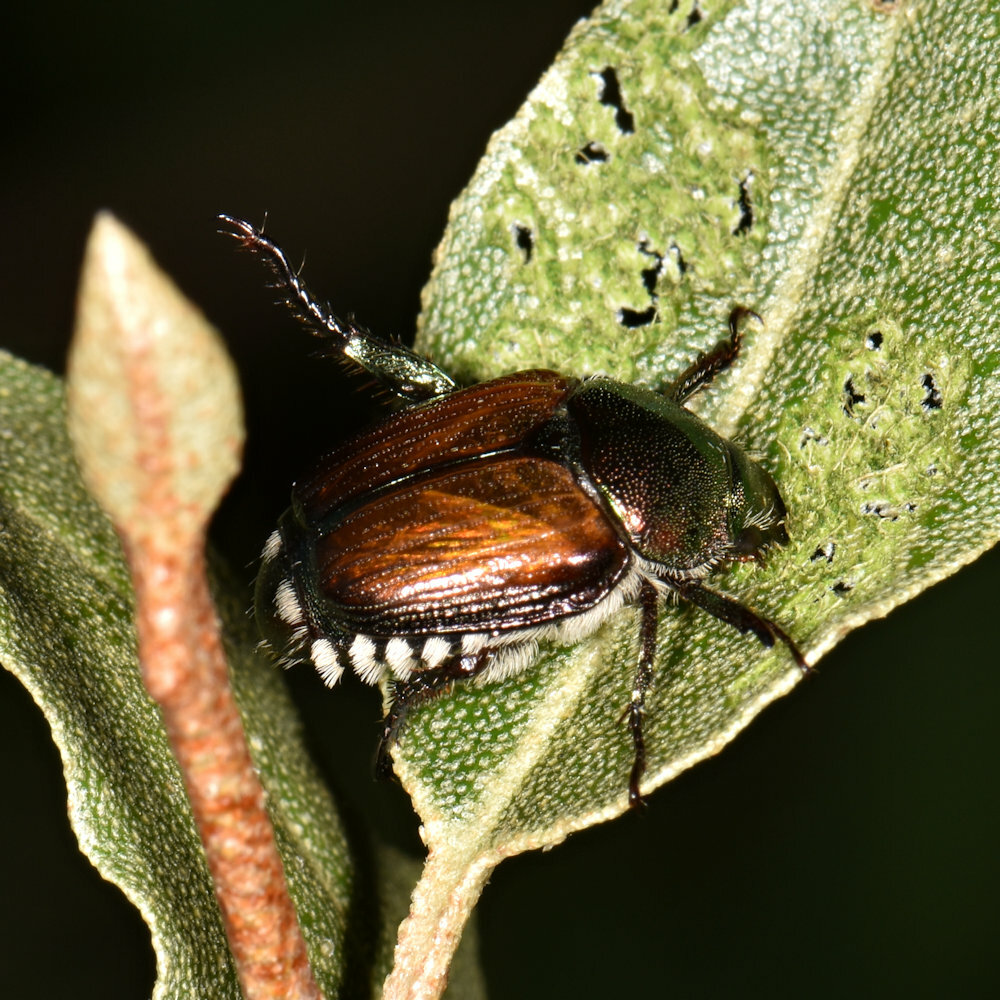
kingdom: Animalia
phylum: Arthropoda
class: Insecta
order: Coleoptera
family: Scarabaeidae
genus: Popillia
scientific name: Popillia japonica
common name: Japanese beetle
